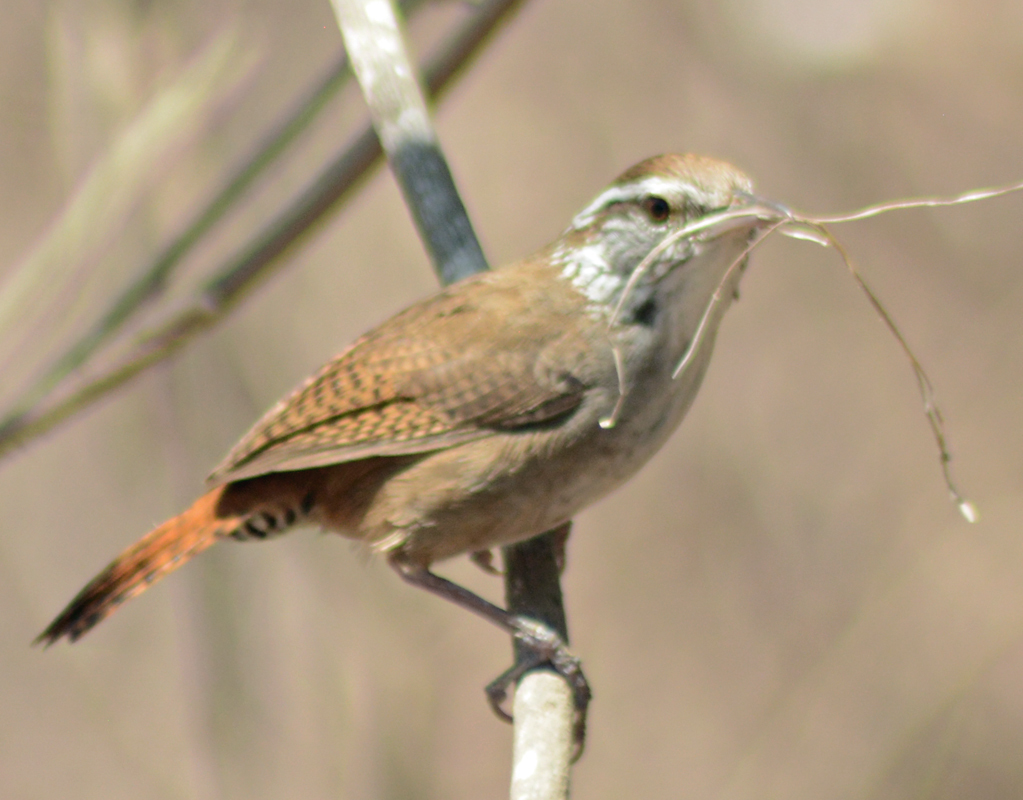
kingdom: Animalia
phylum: Chordata
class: Aves
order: Passeriformes
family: Troglodytidae
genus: Thryophilus
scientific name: Thryophilus sinaloa
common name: Sinaloa wren
